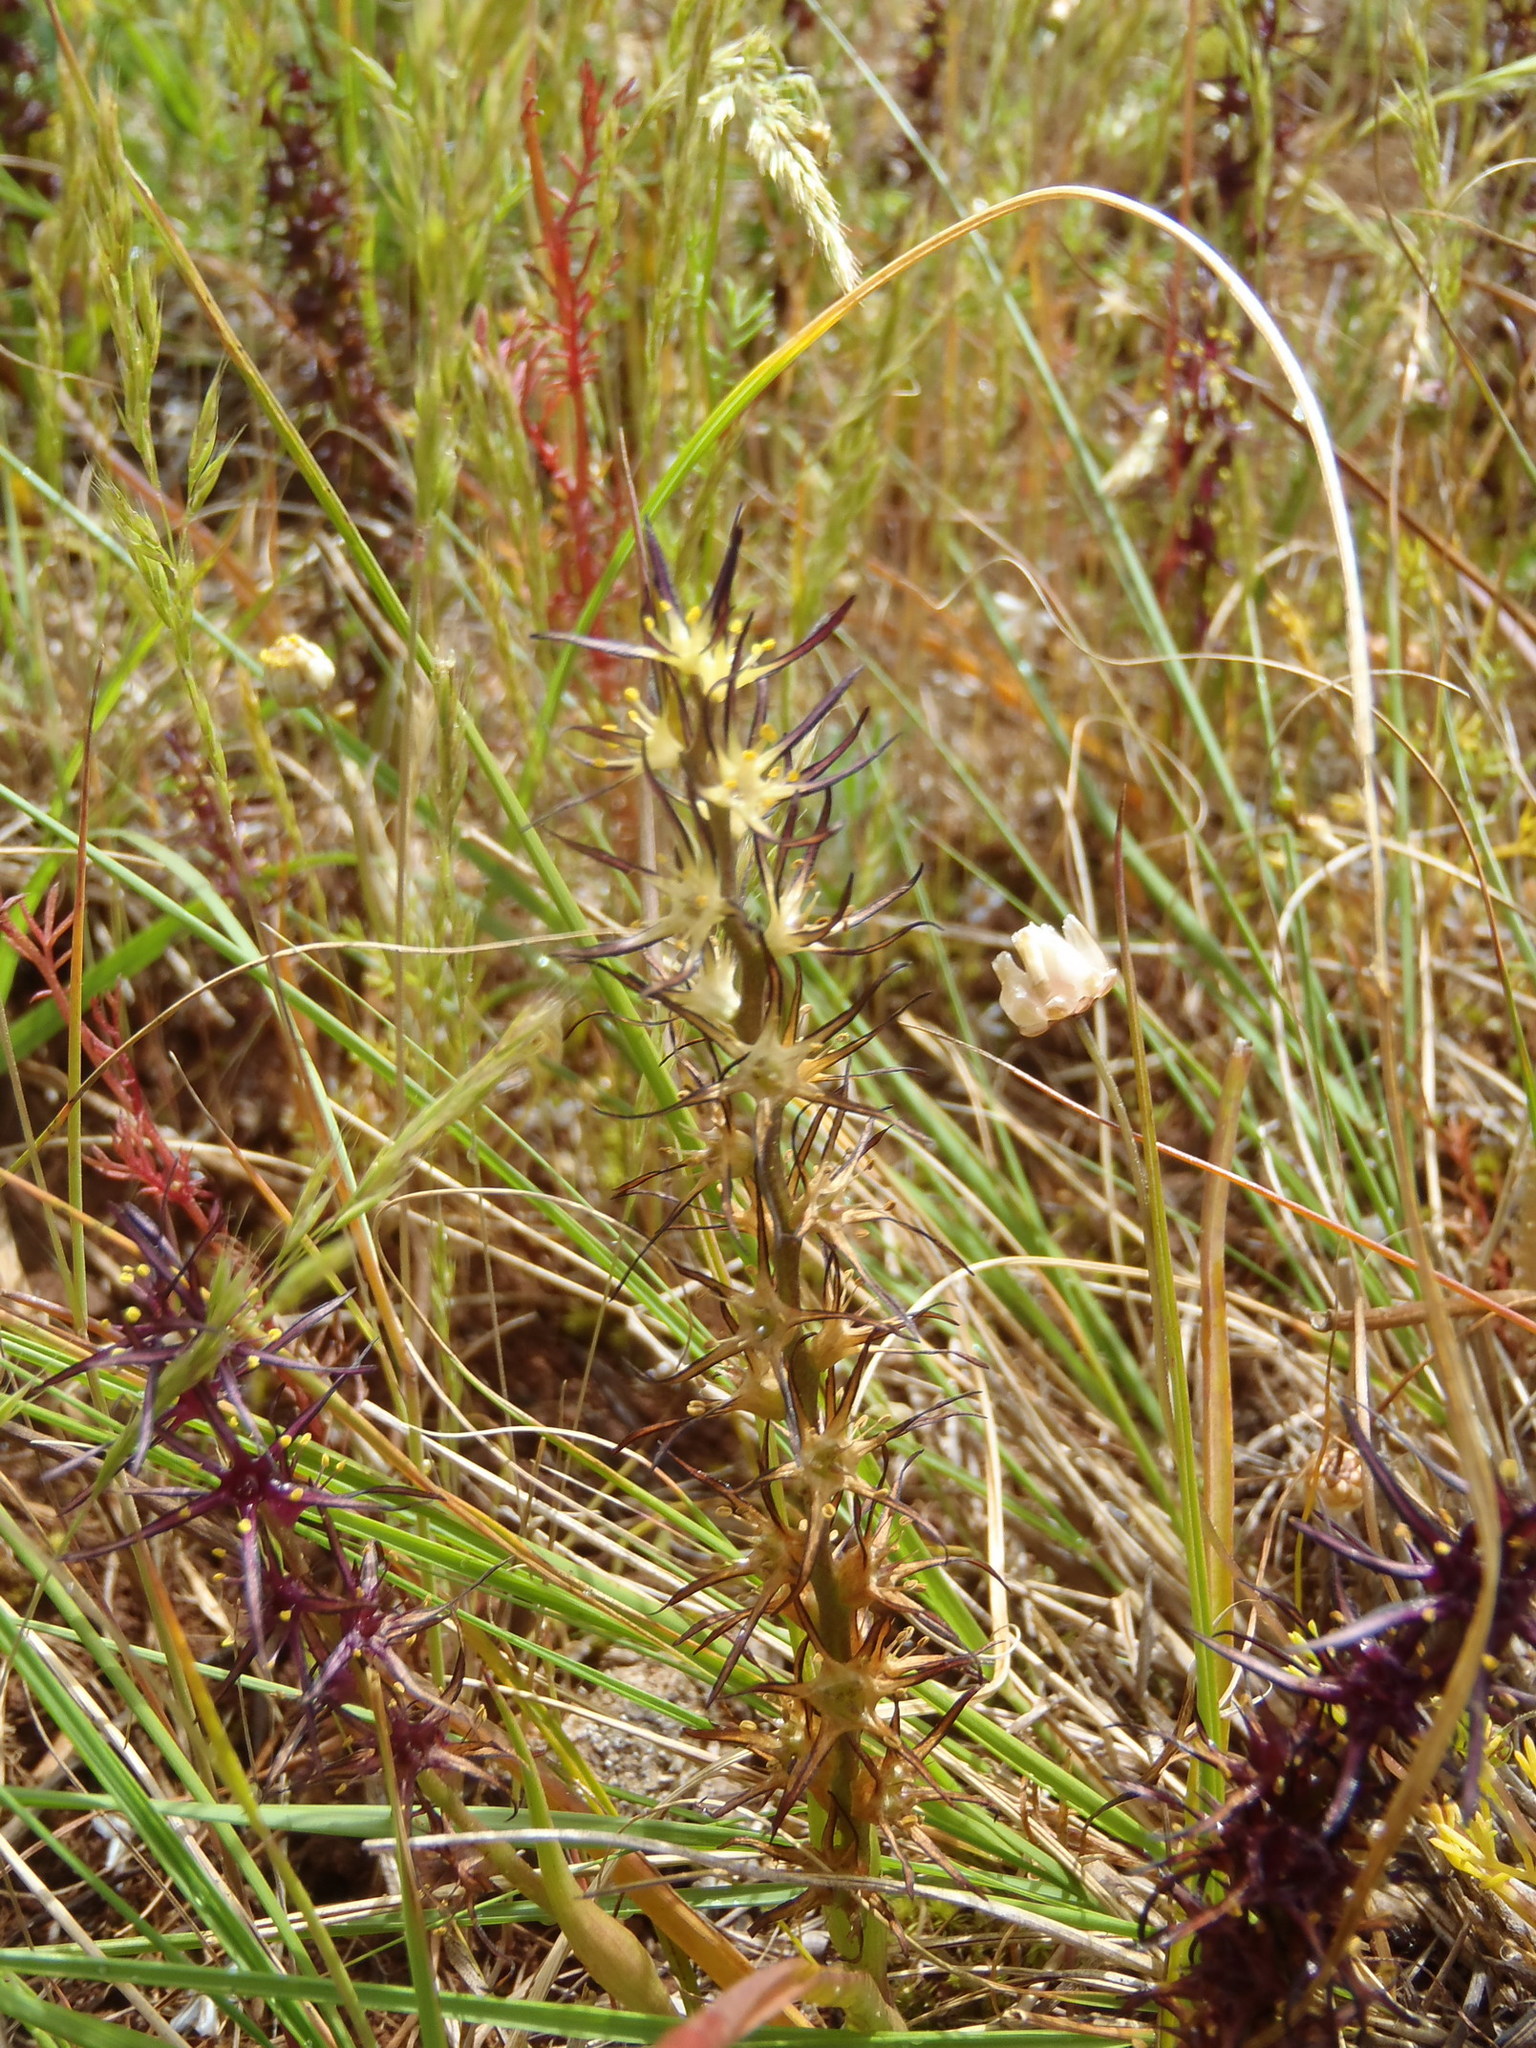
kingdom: Plantae
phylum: Tracheophyta
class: Liliopsida
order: Liliales
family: Colchicaceae
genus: Wurmbea
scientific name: Wurmbea spicata
